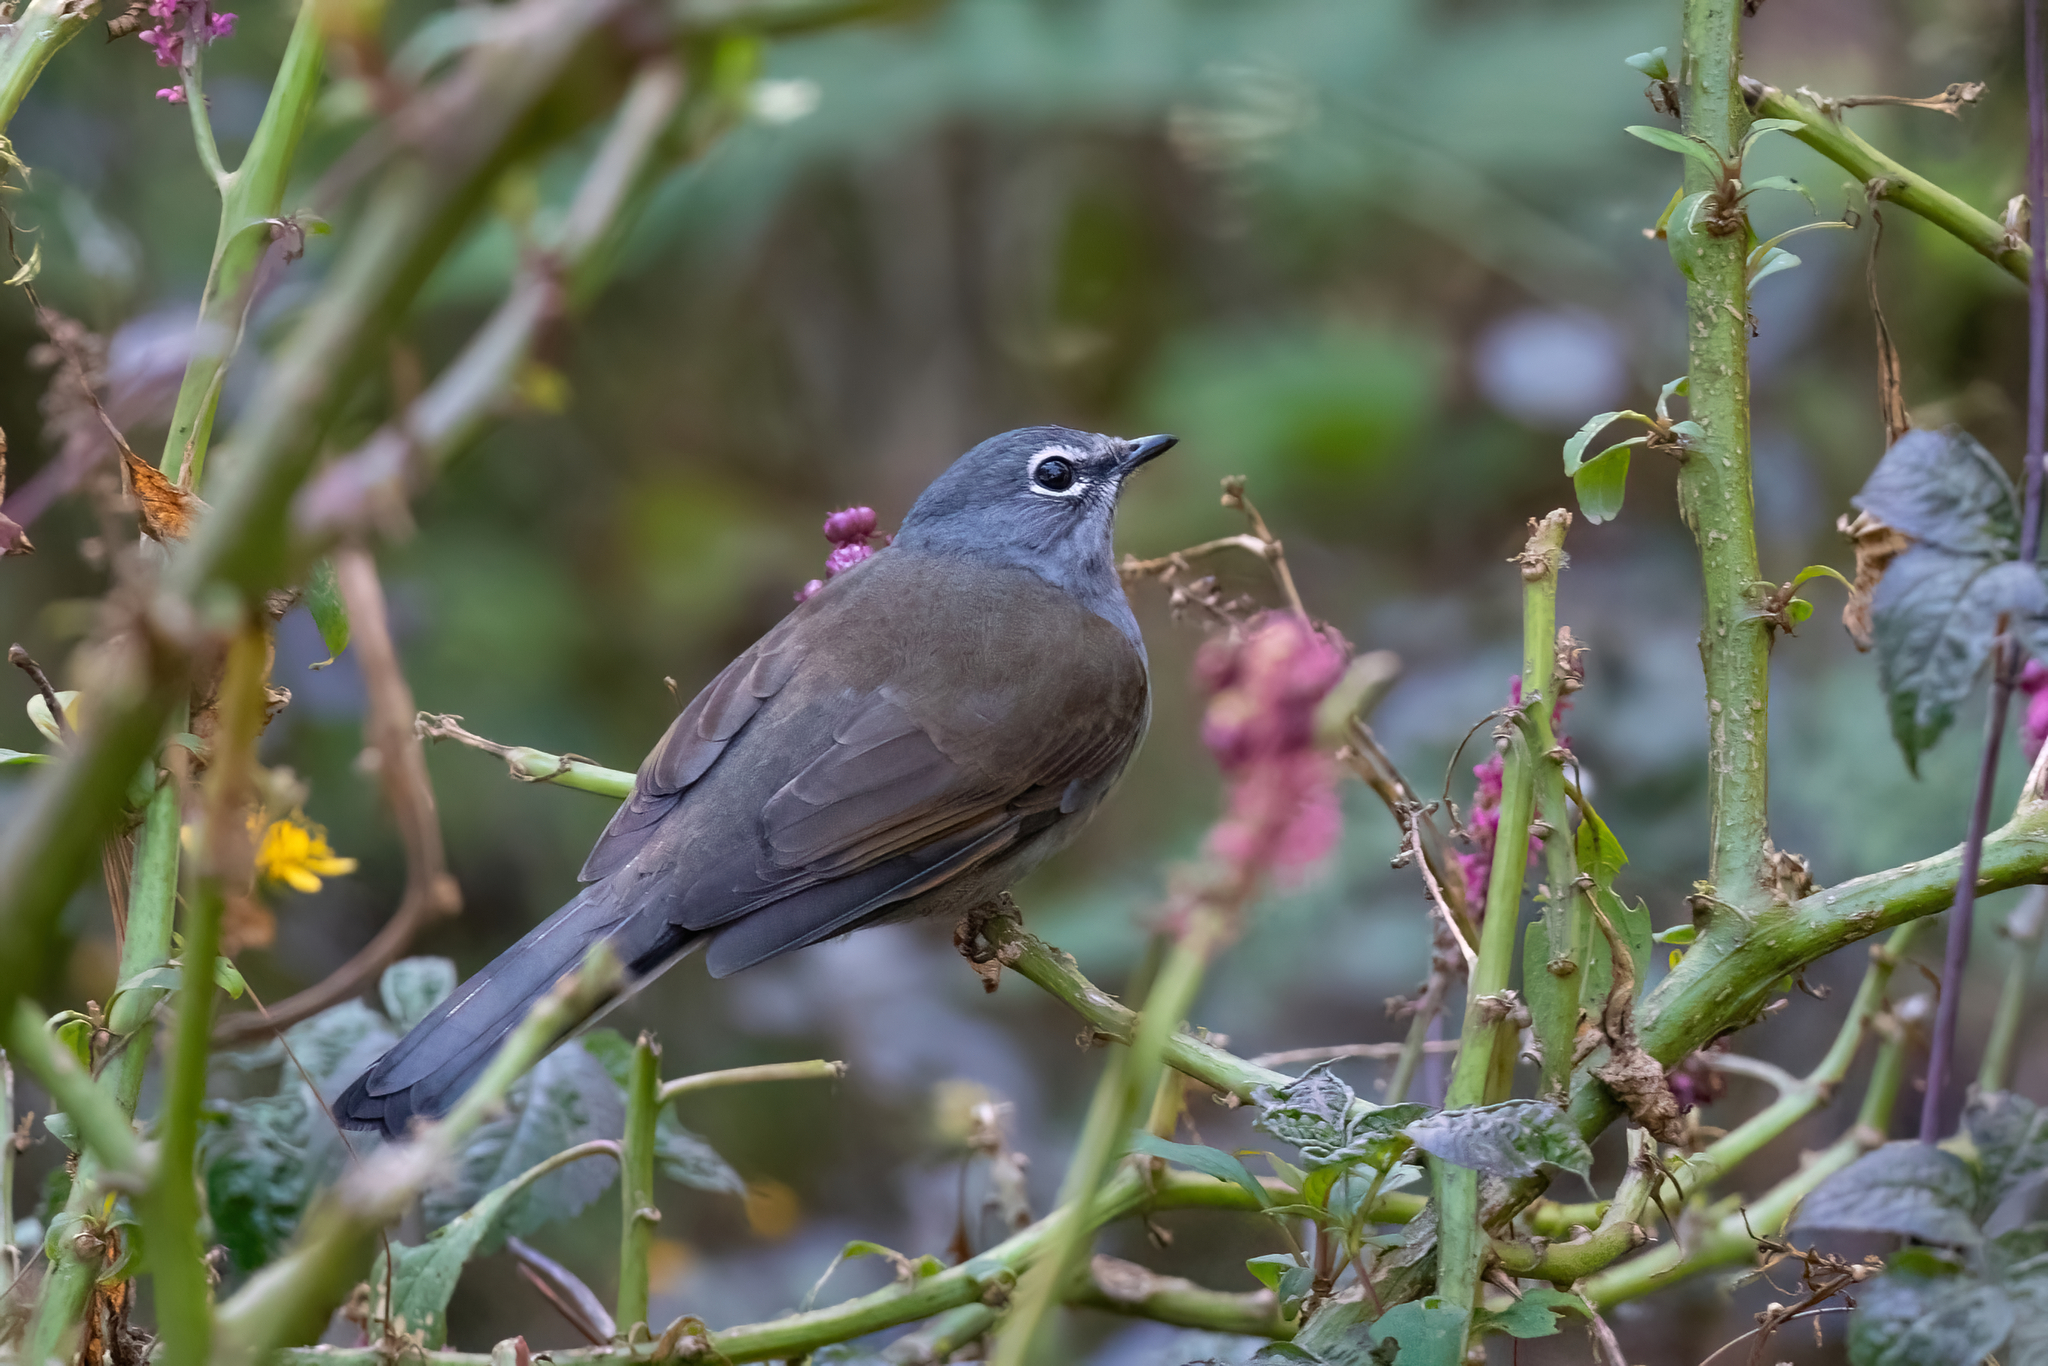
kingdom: Animalia
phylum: Chordata
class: Aves
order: Passeriformes
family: Turdidae
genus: Myadestes
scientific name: Myadestes occidentalis
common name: Brown-backed solitaire
